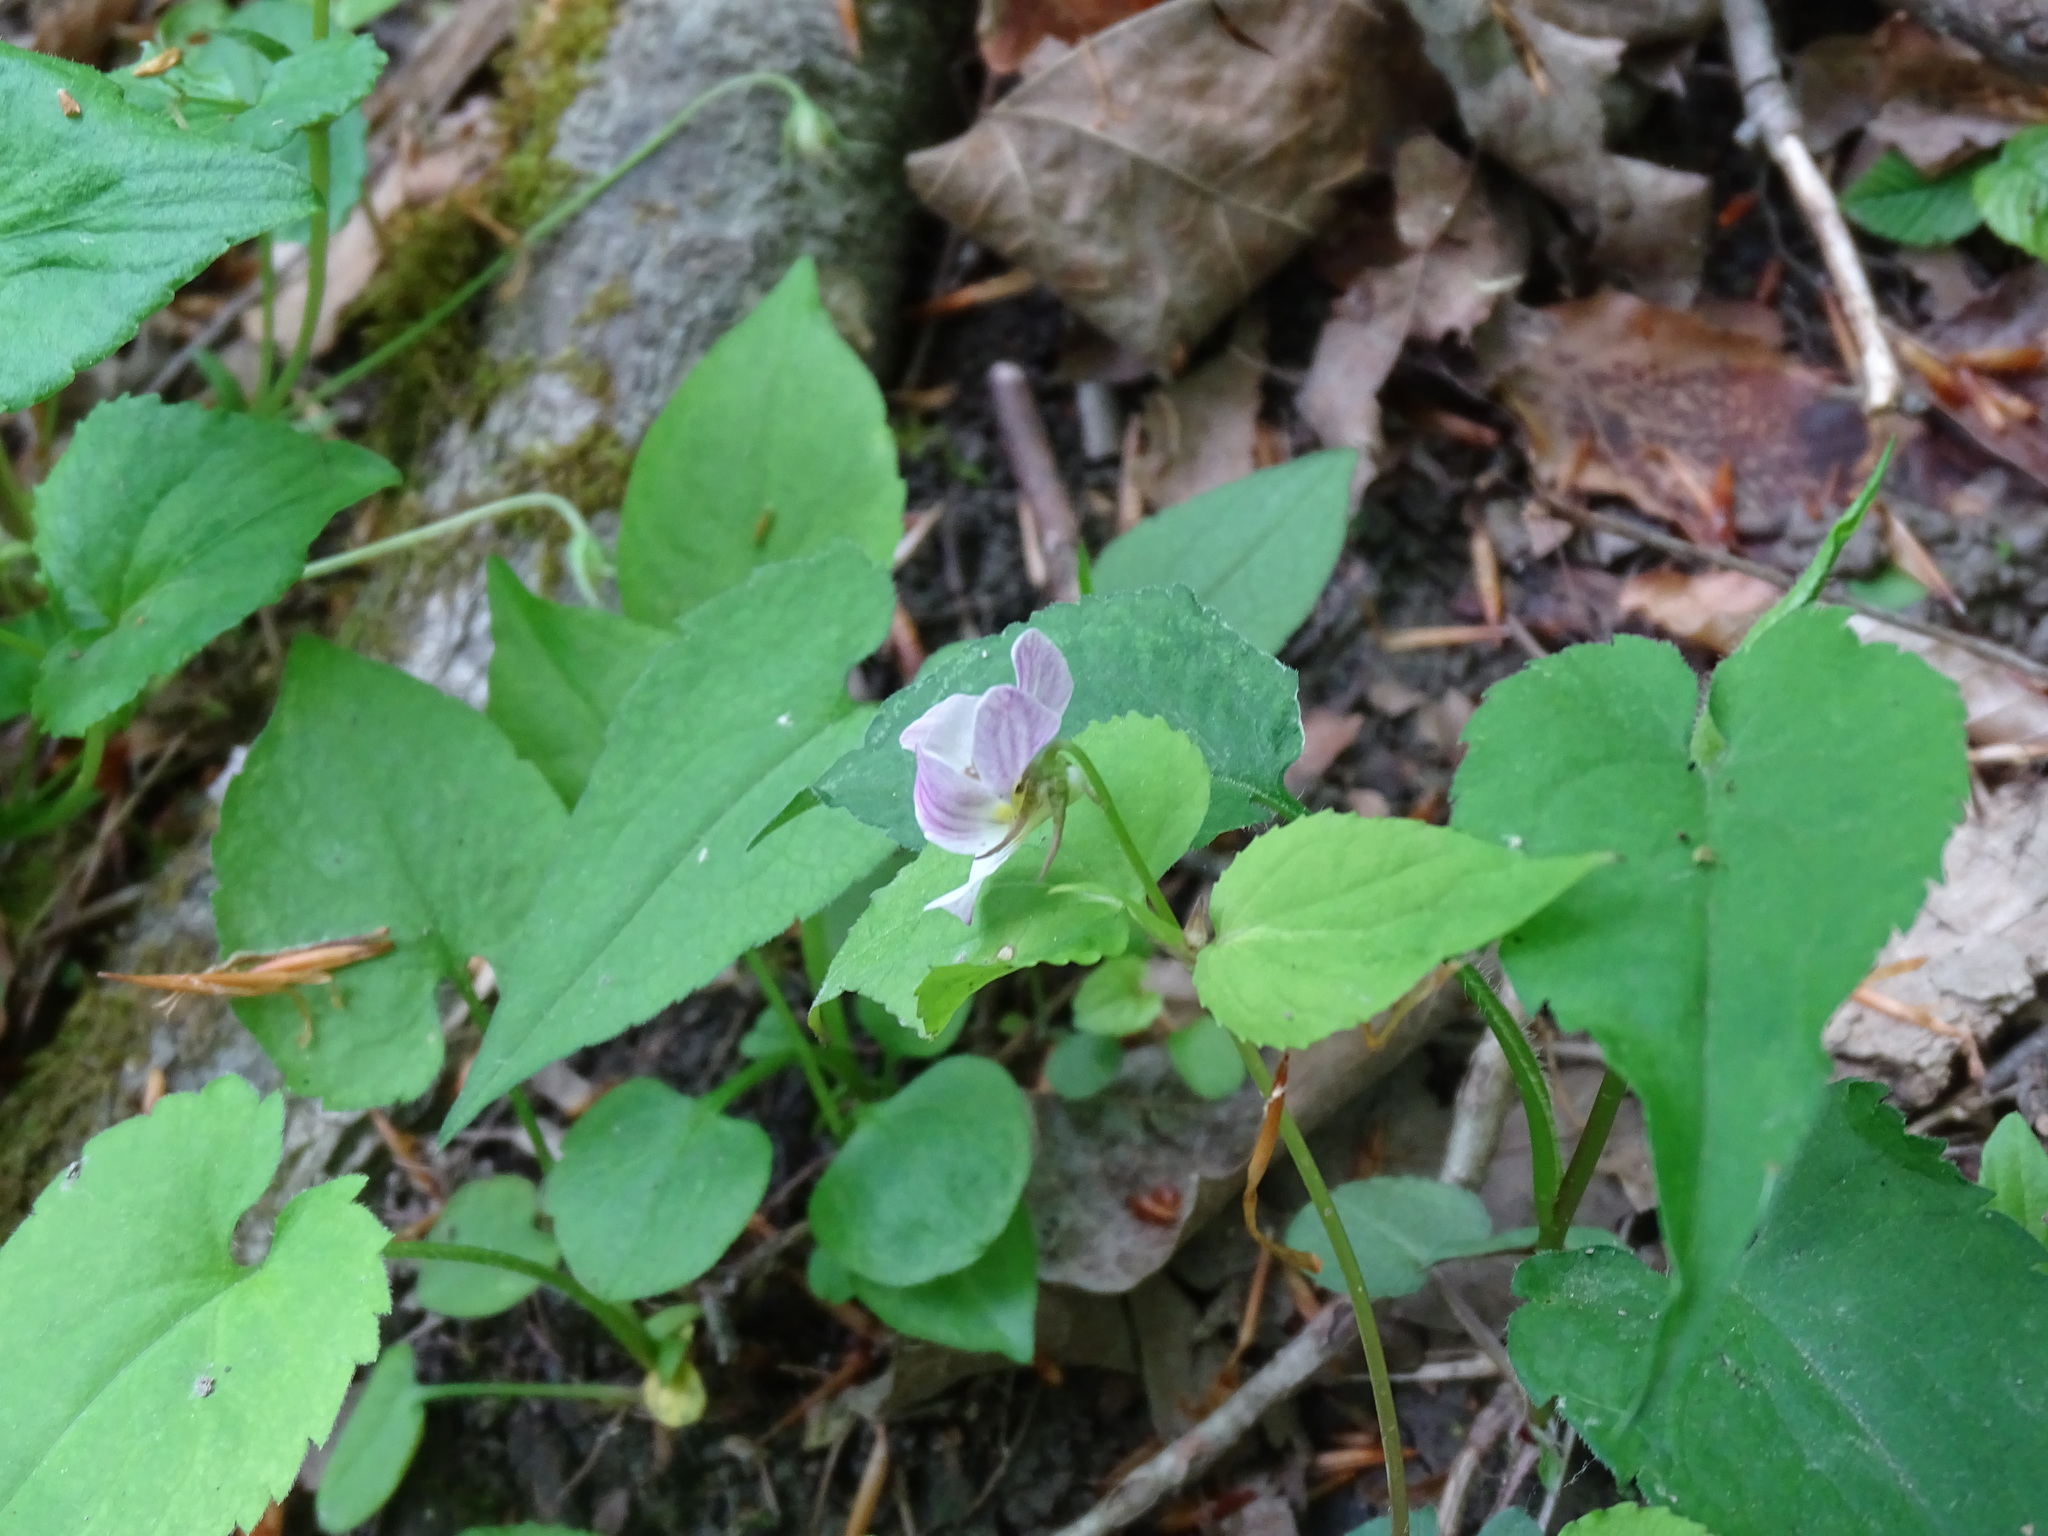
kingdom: Plantae
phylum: Tracheophyta
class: Magnoliopsida
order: Malpighiales
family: Violaceae
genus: Viola
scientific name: Viola canadensis
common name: Canada violet
